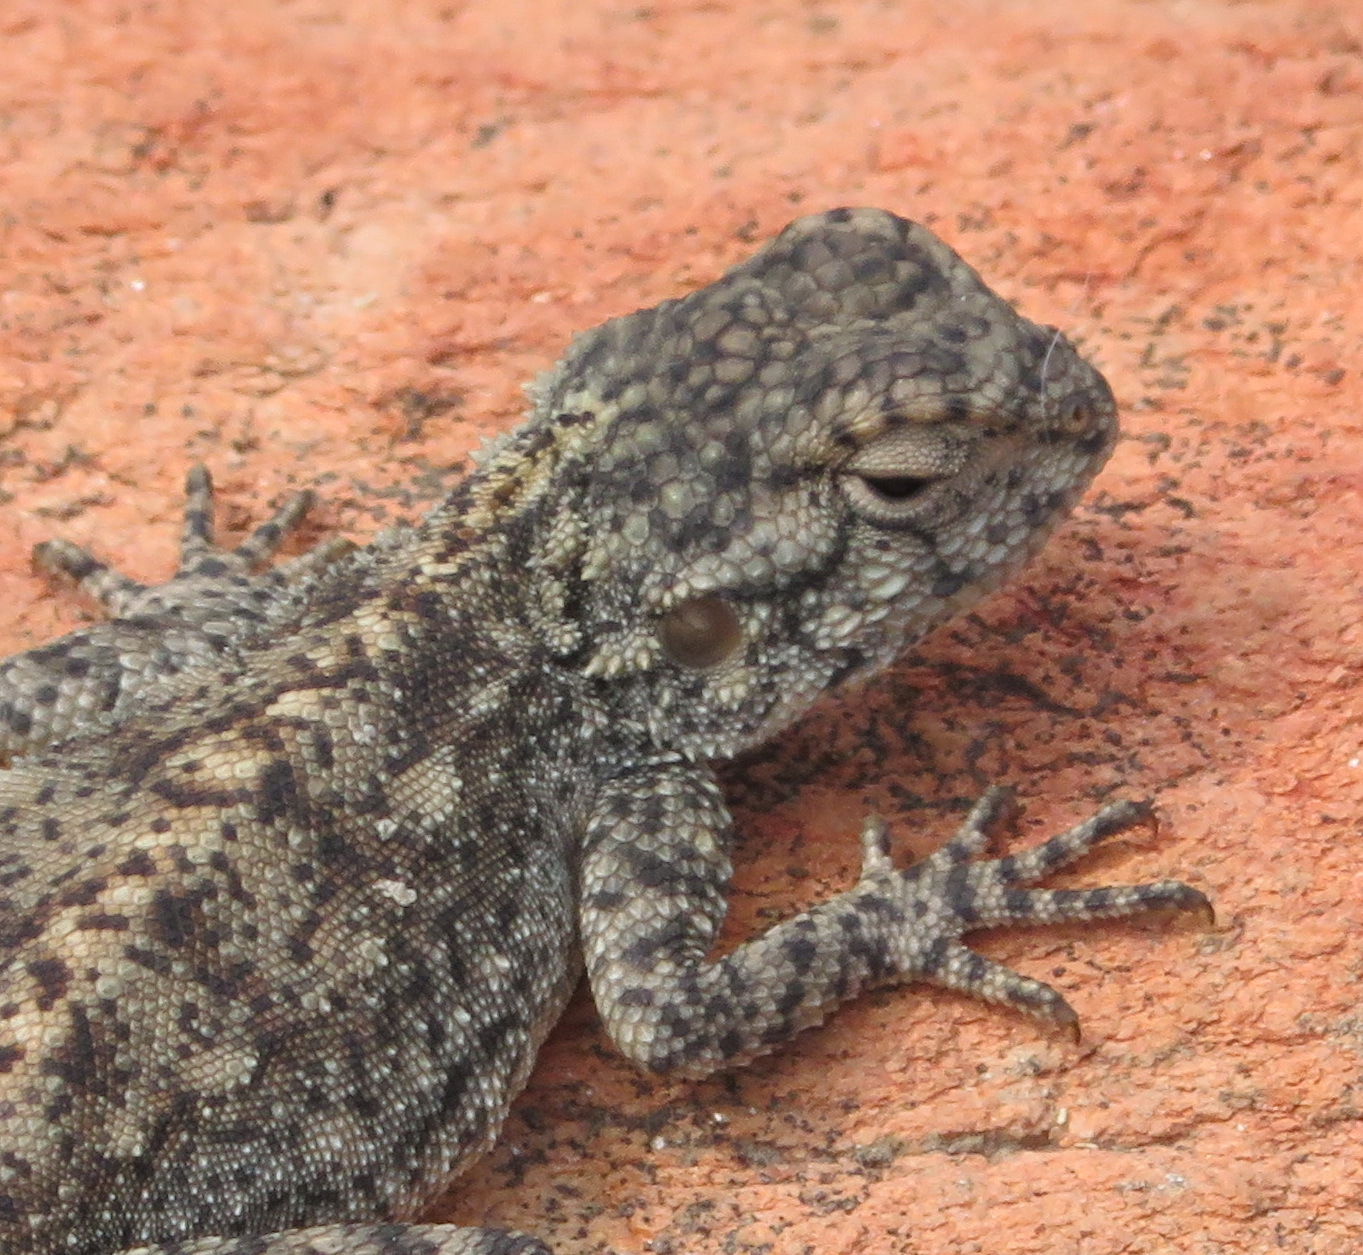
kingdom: Animalia
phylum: Chordata
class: Squamata
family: Agamidae
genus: Agama
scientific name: Agama atra
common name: Southern african rock agama
